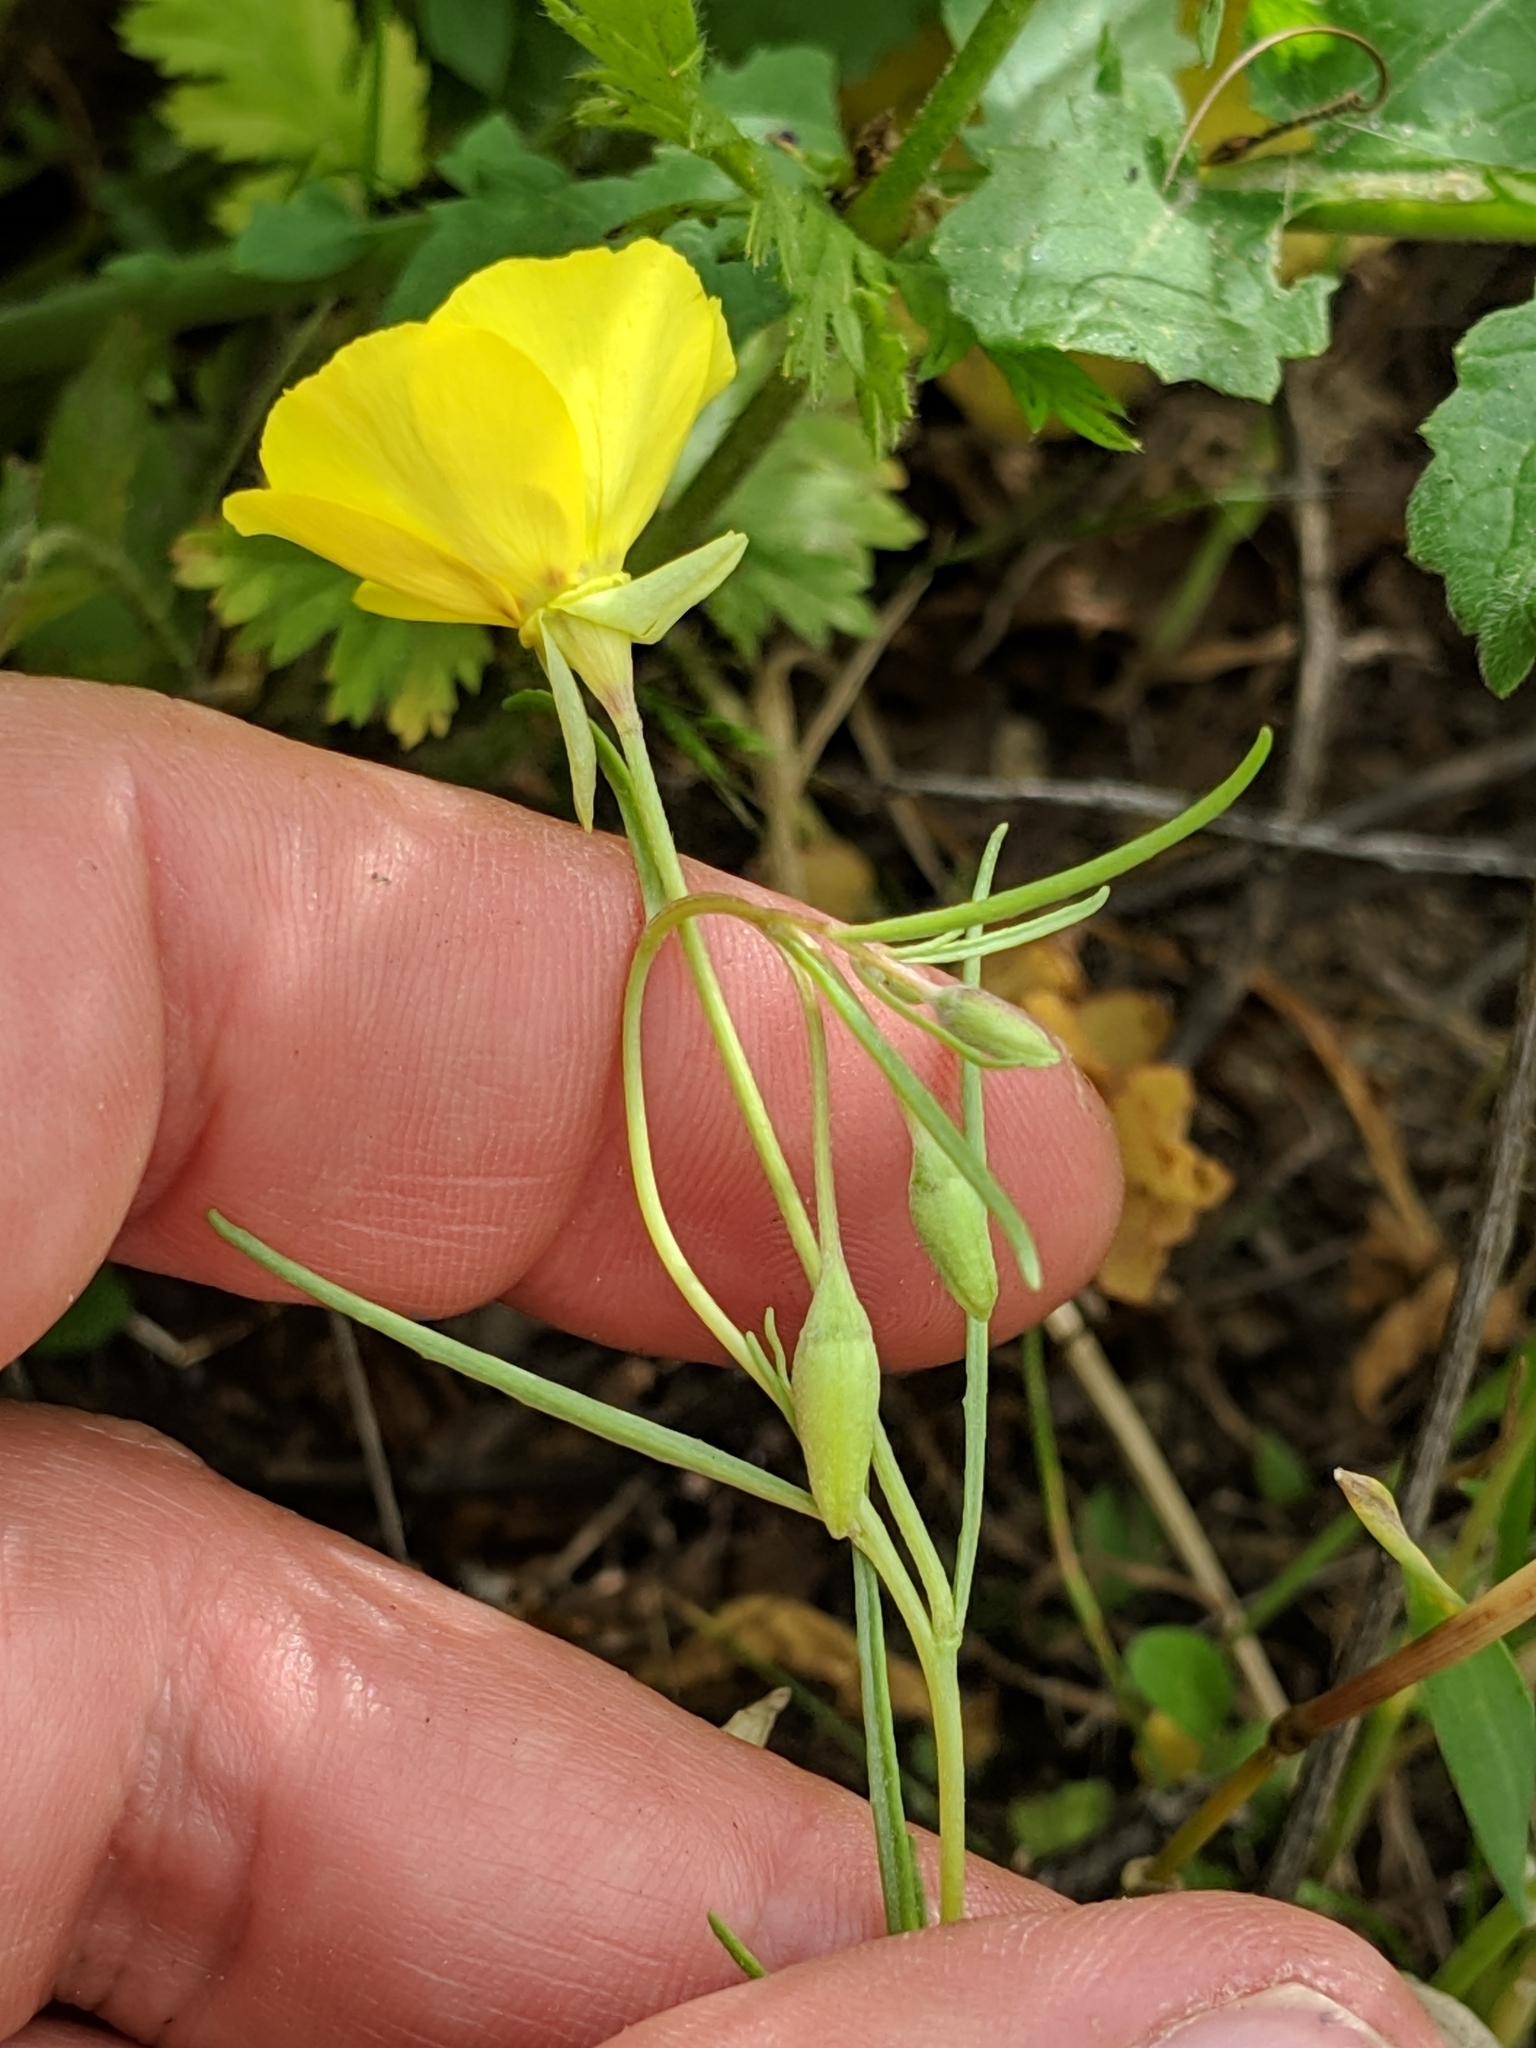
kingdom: Plantae
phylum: Tracheophyta
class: Magnoliopsida
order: Myrtales
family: Onagraceae
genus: Camissonia
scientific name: Camissonia campestris
